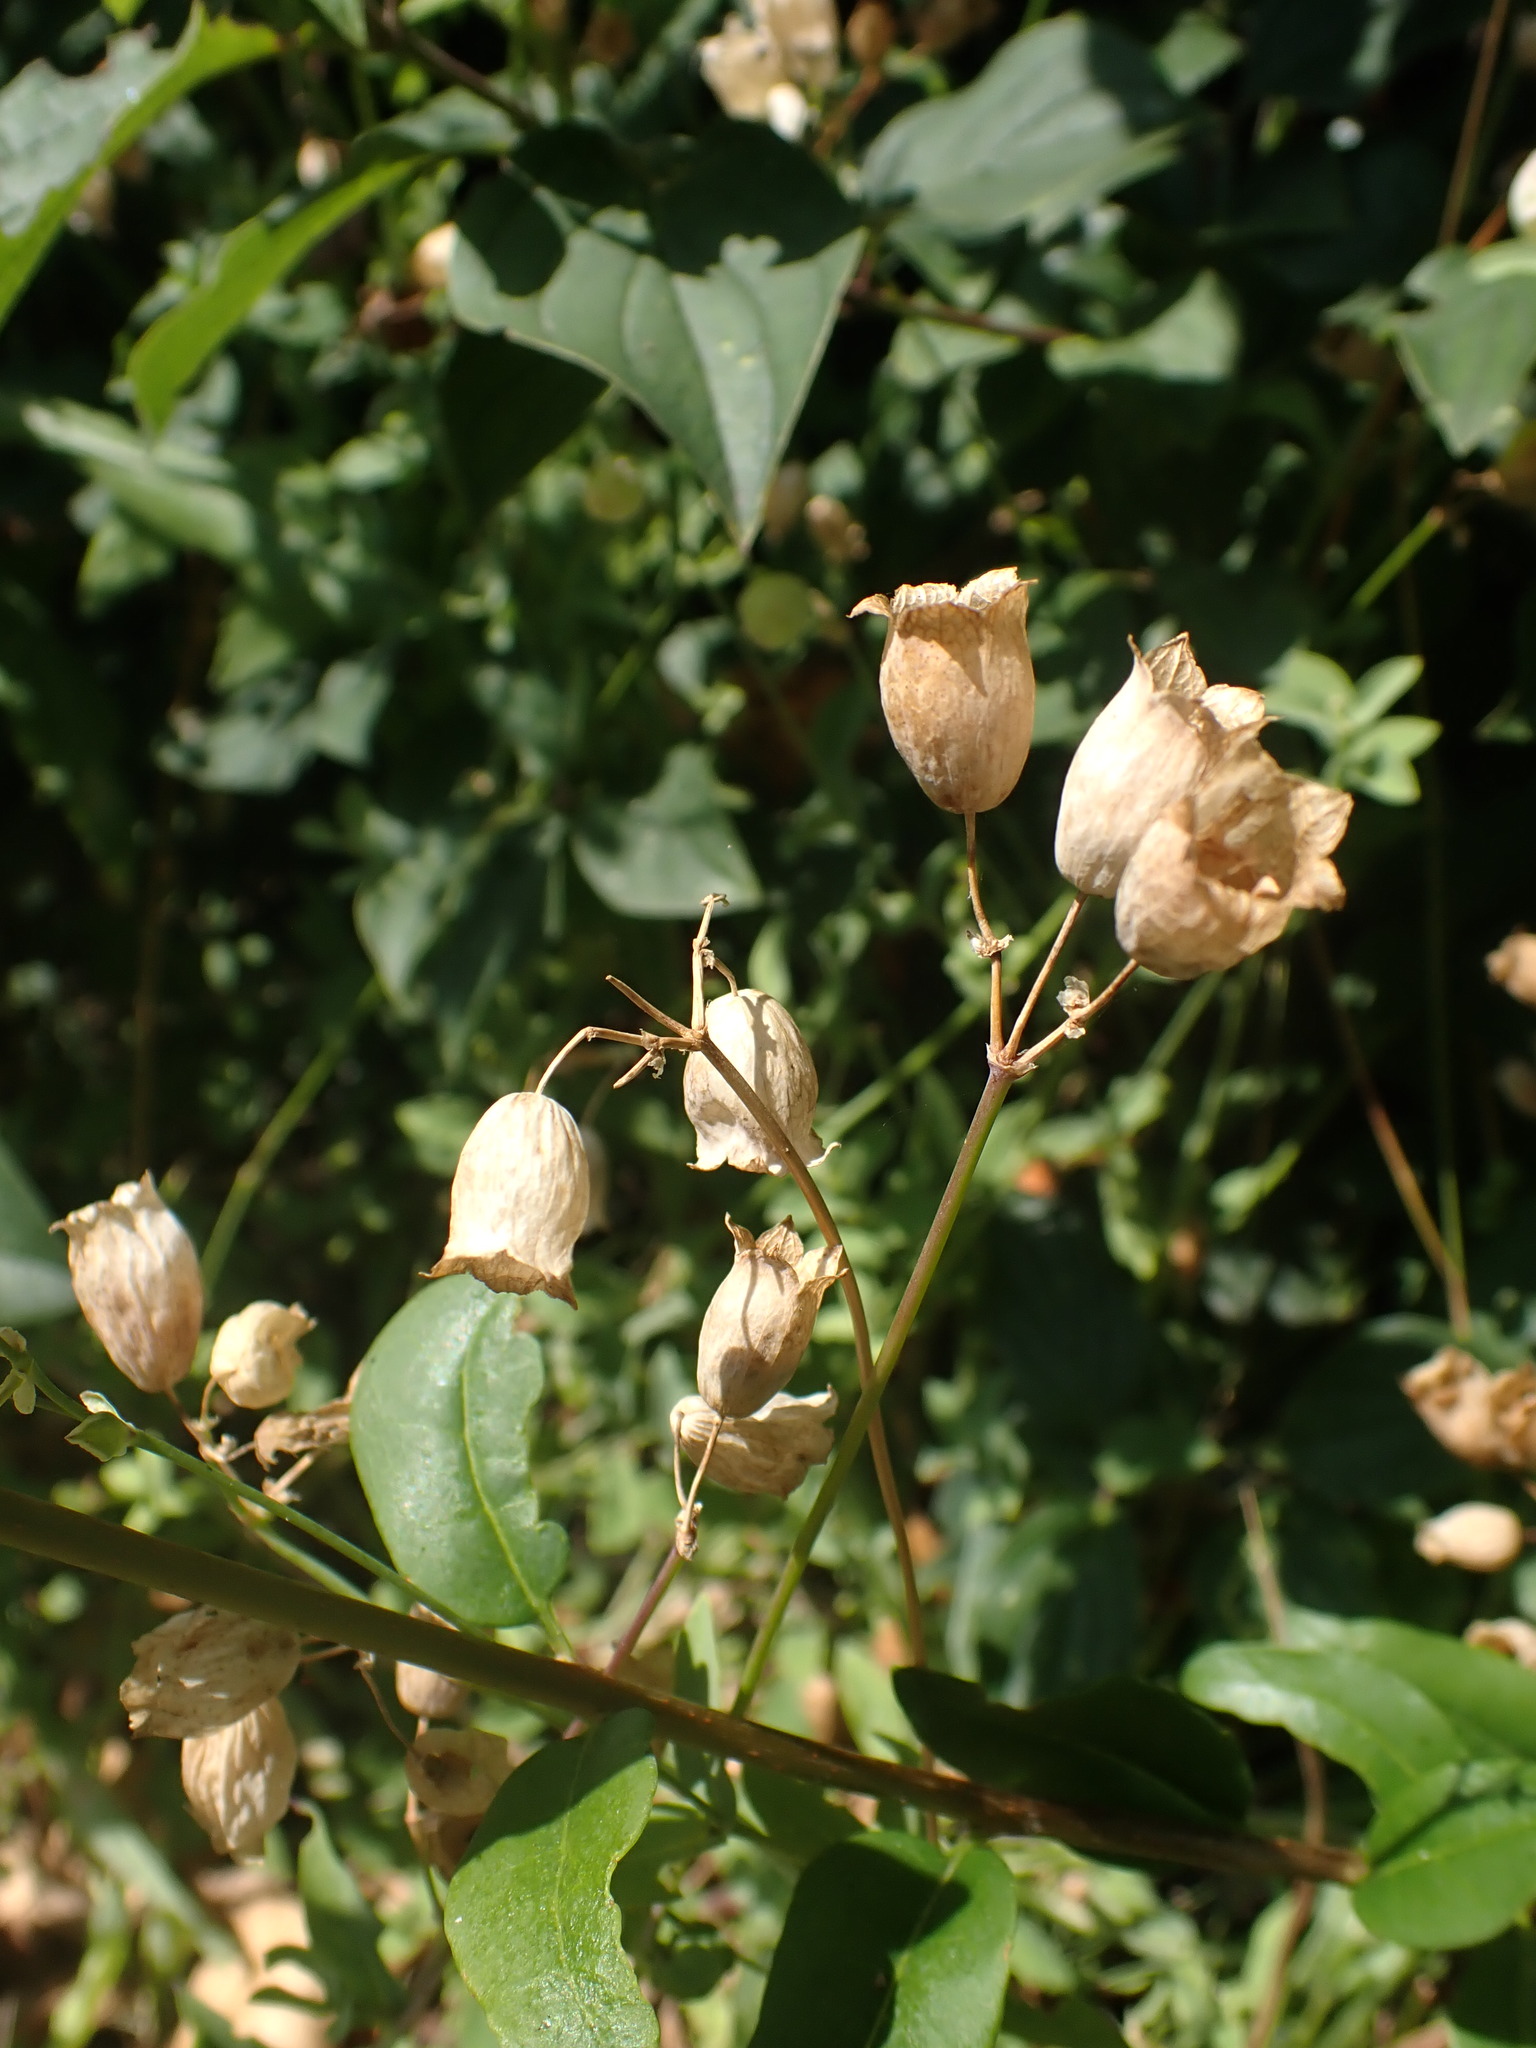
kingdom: Plantae
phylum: Tracheophyta
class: Magnoliopsida
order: Caryophyllales
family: Caryophyllaceae
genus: Silene
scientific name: Silene vulgaris
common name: Bladder campion
